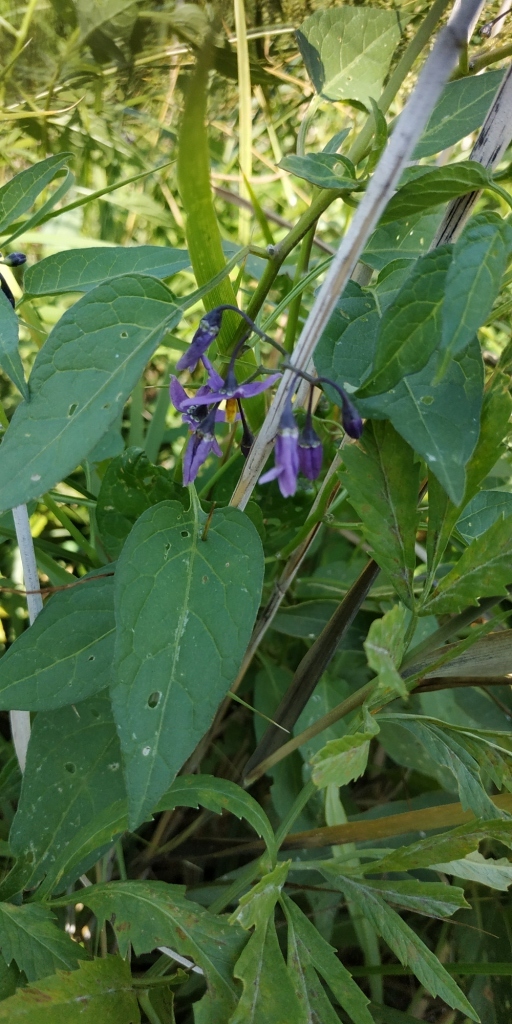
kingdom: Plantae
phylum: Tracheophyta
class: Magnoliopsida
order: Solanales
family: Solanaceae
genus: Solanum
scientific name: Solanum dulcamara
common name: Climbing nightshade
